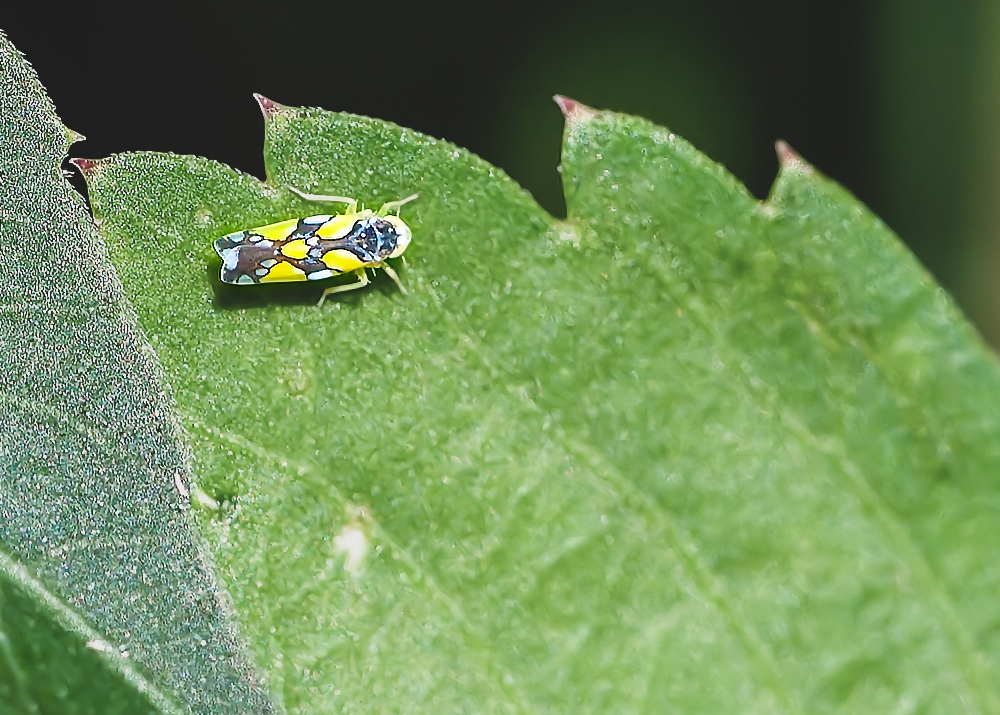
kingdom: Animalia
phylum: Arthropoda
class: Insecta
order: Hemiptera
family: Cicadellidae
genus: Protalebrella
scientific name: Protalebrella brasiliensis
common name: Brasilian leafhopper
